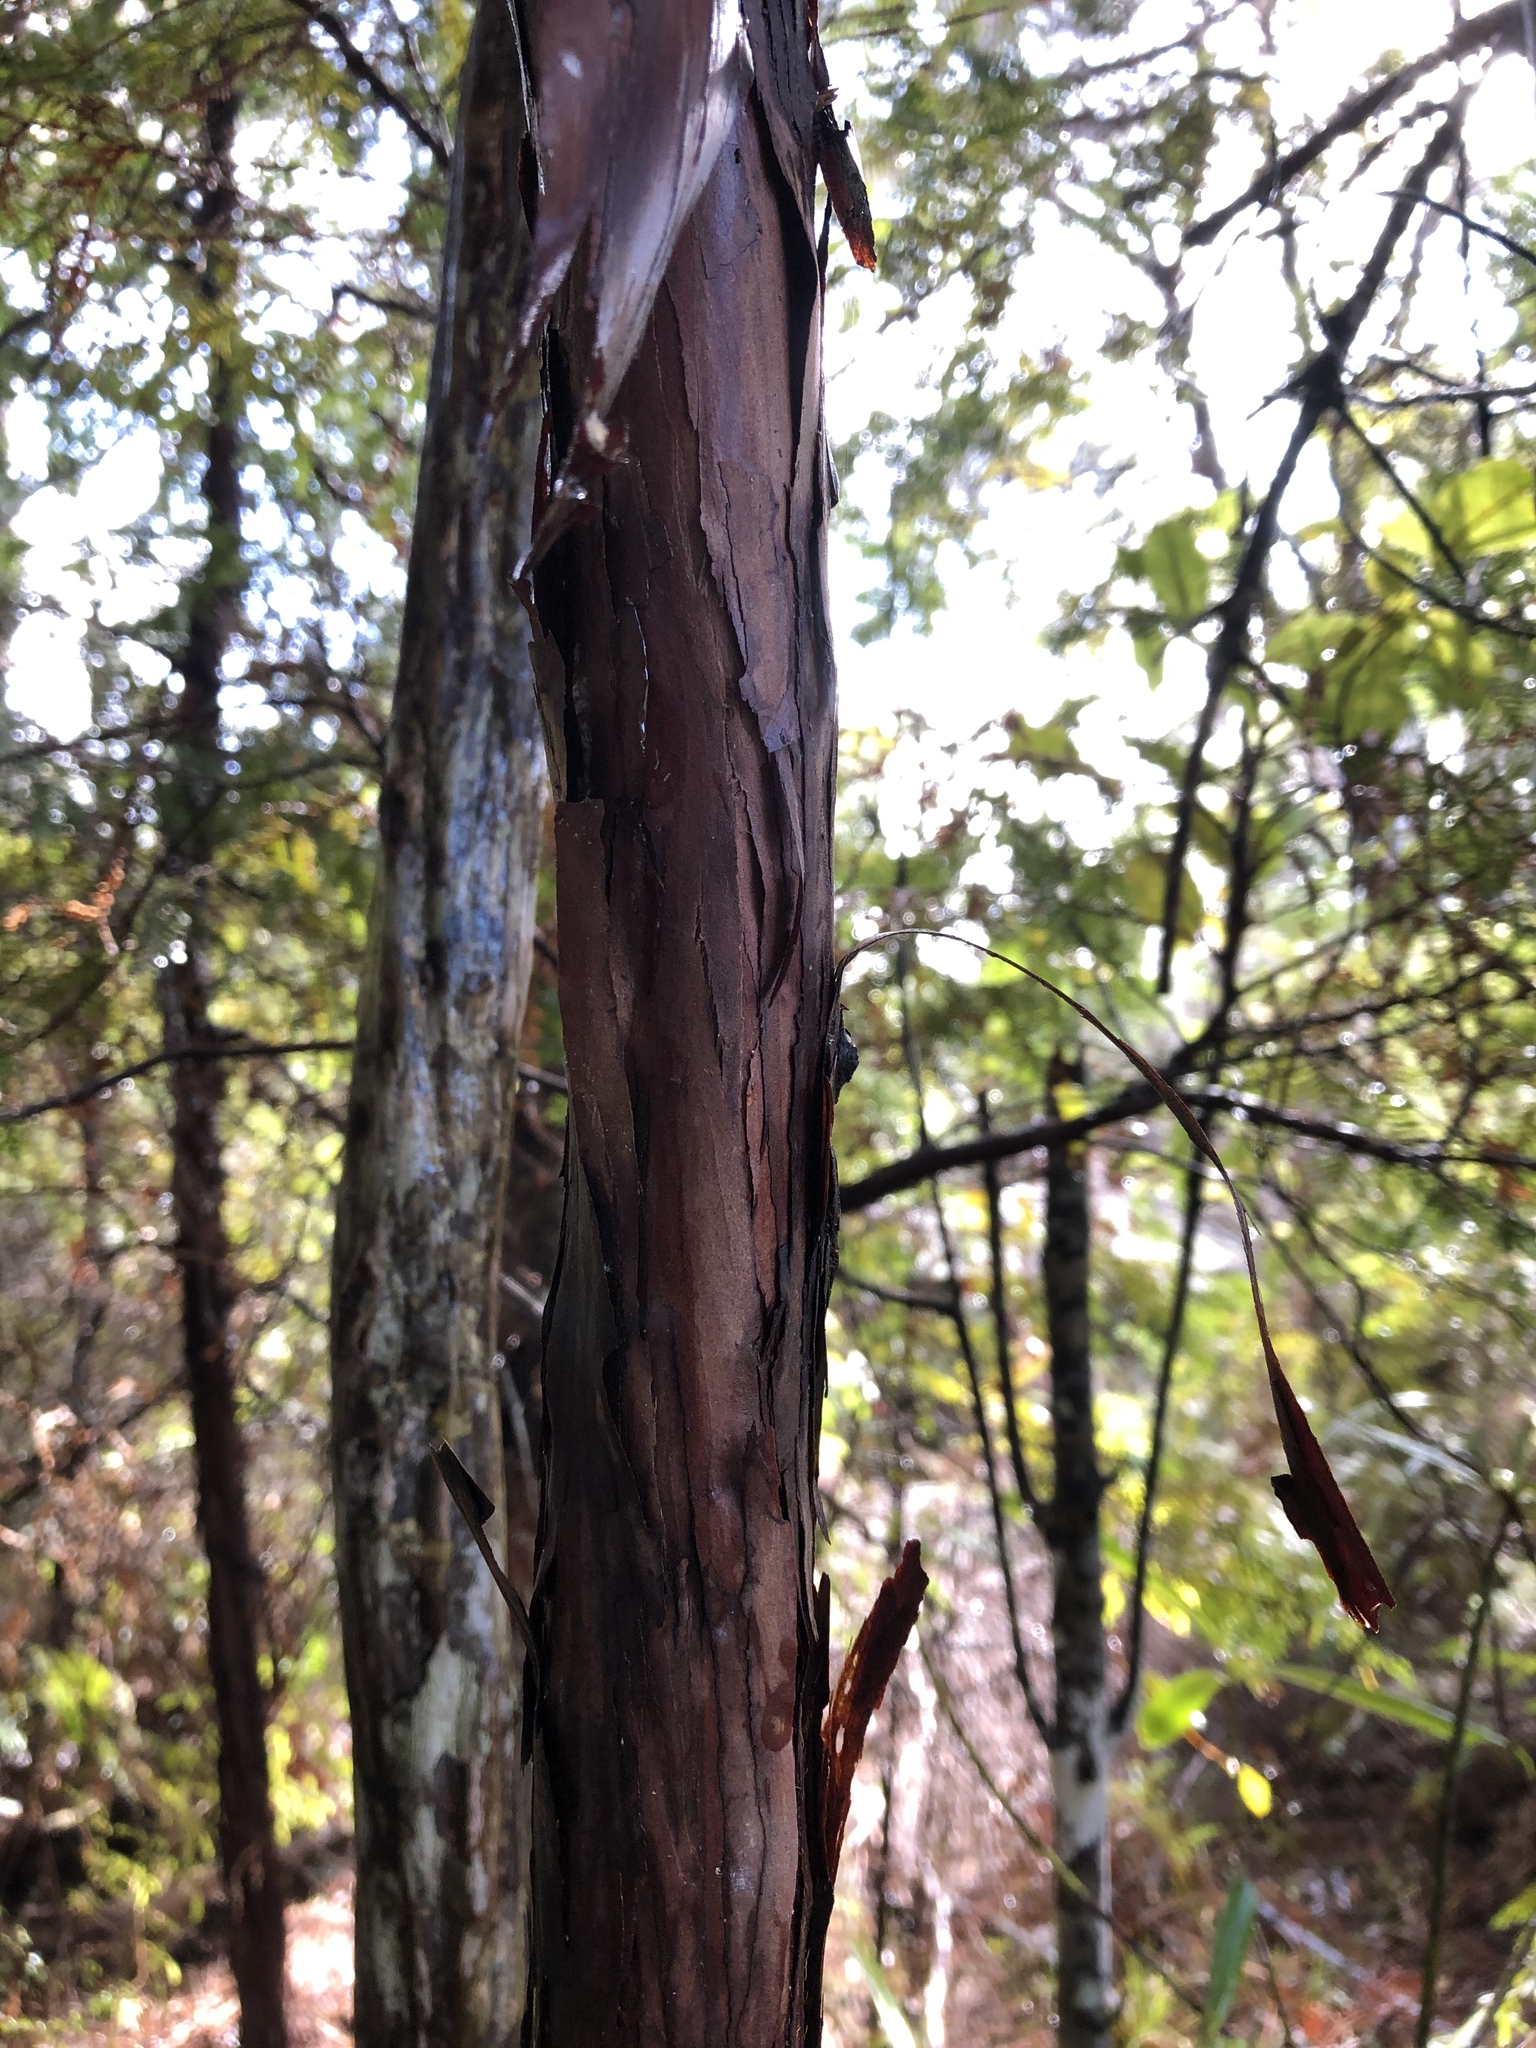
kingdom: Plantae
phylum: Tracheophyta
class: Pinopsida
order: Pinales
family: Cupressaceae
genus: Libocedrus
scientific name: Libocedrus plumosa
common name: New zealand cedar
